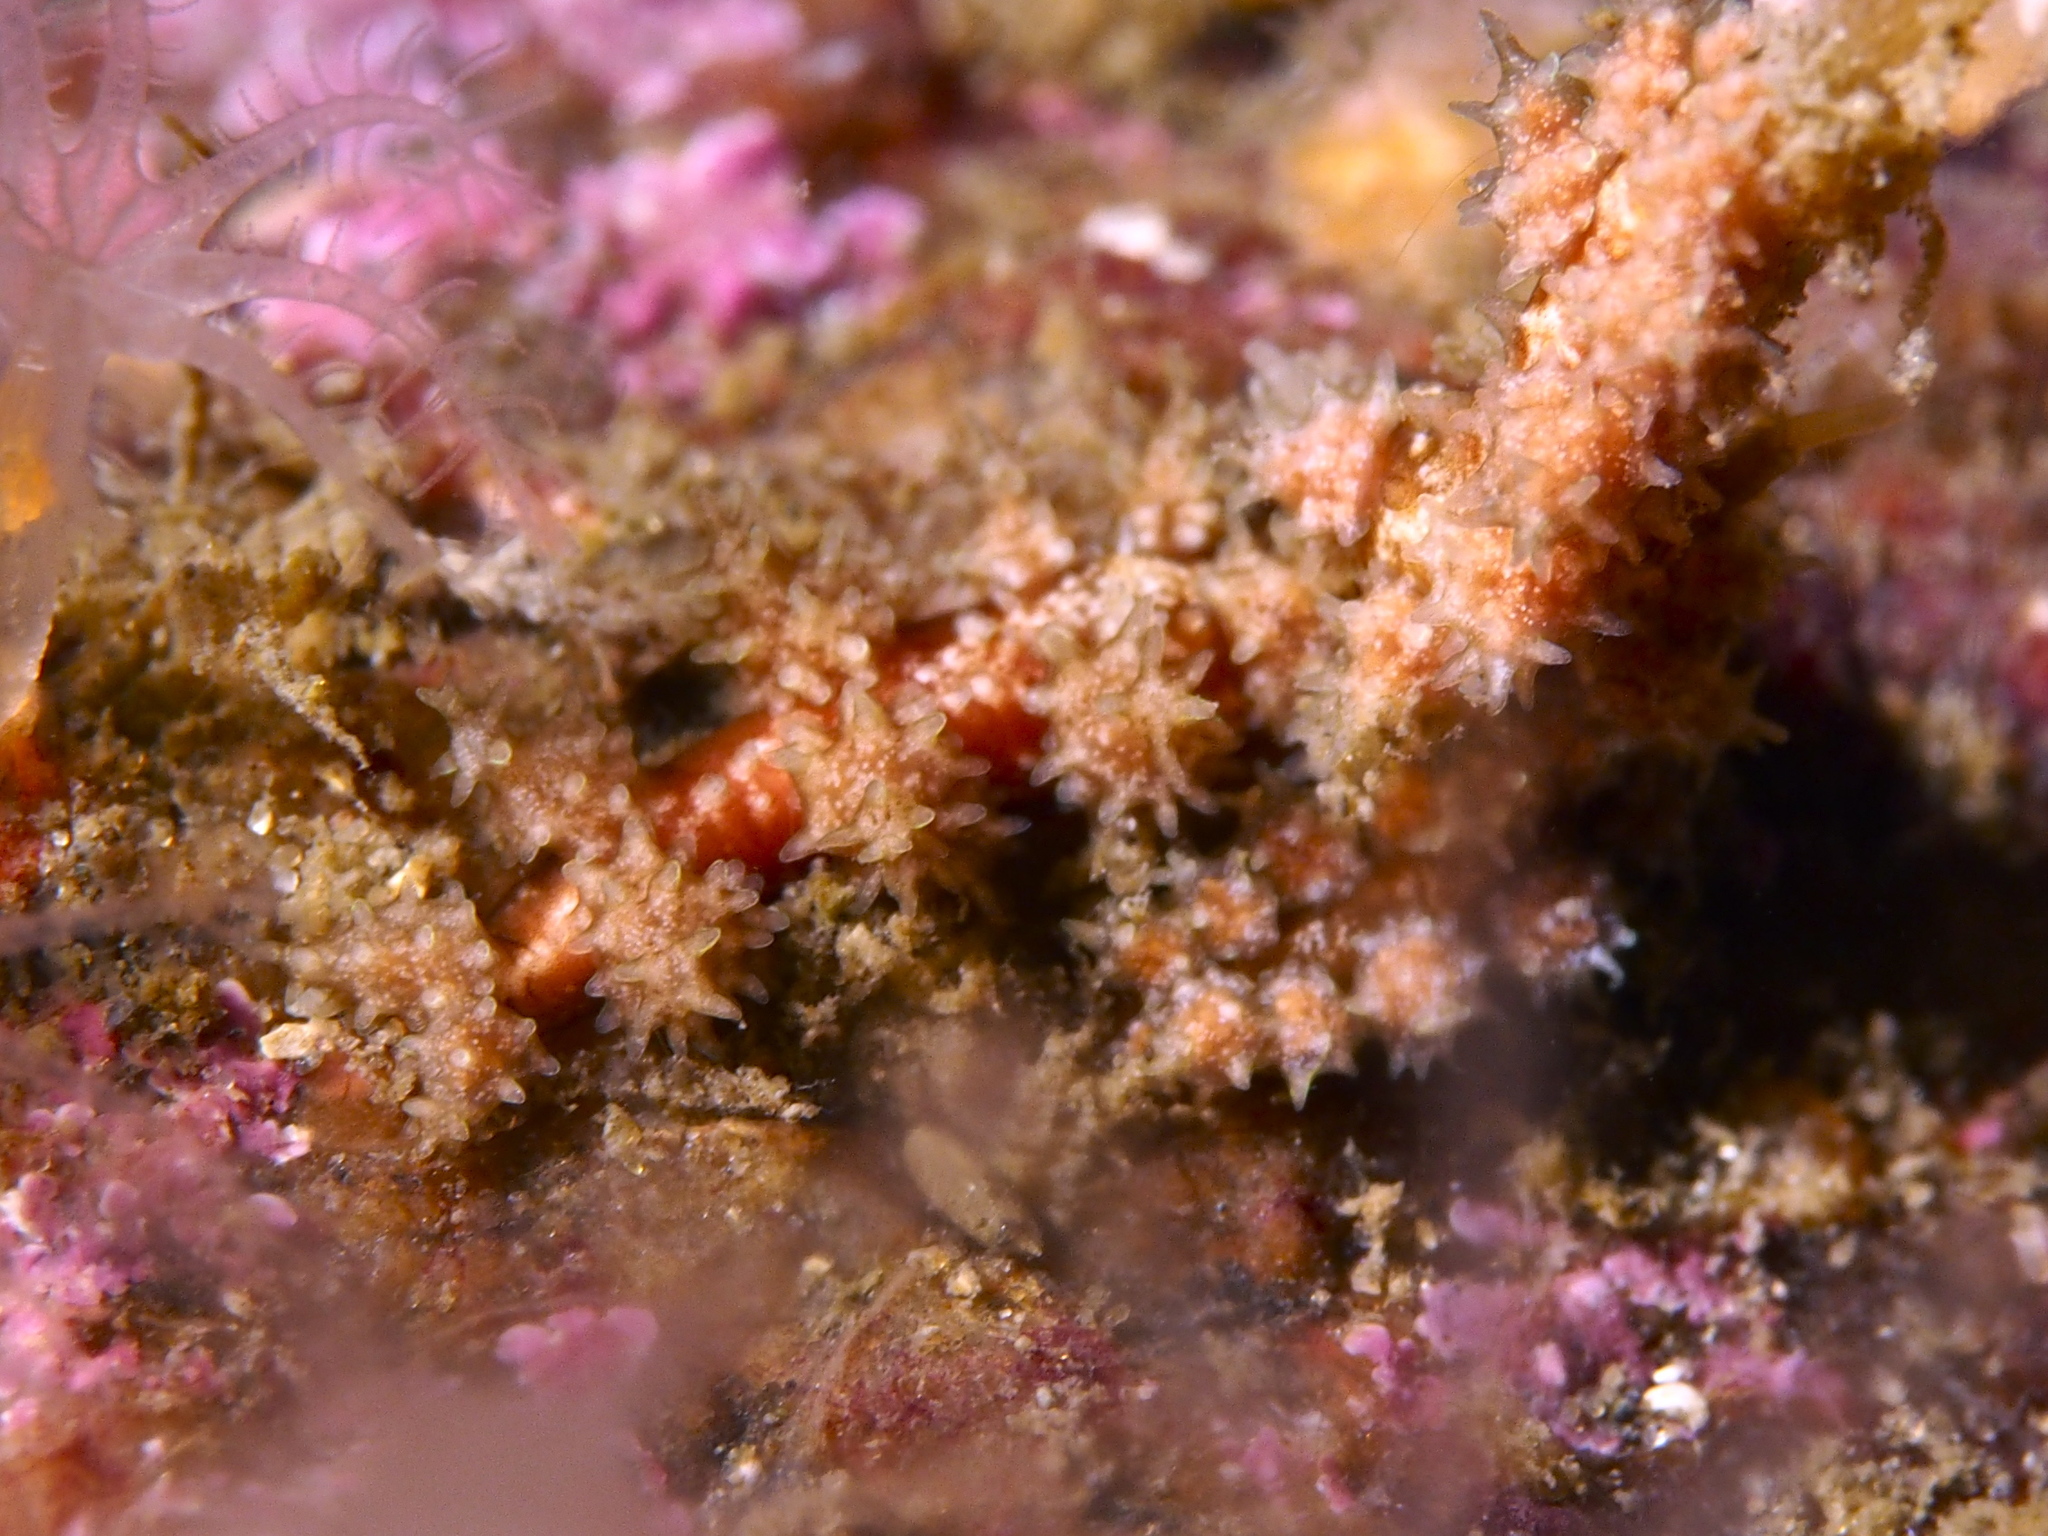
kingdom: Animalia
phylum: Mollusca
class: Gastropoda
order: Nudibranchia
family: Dotidae
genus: Doto
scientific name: Doto hystrix
